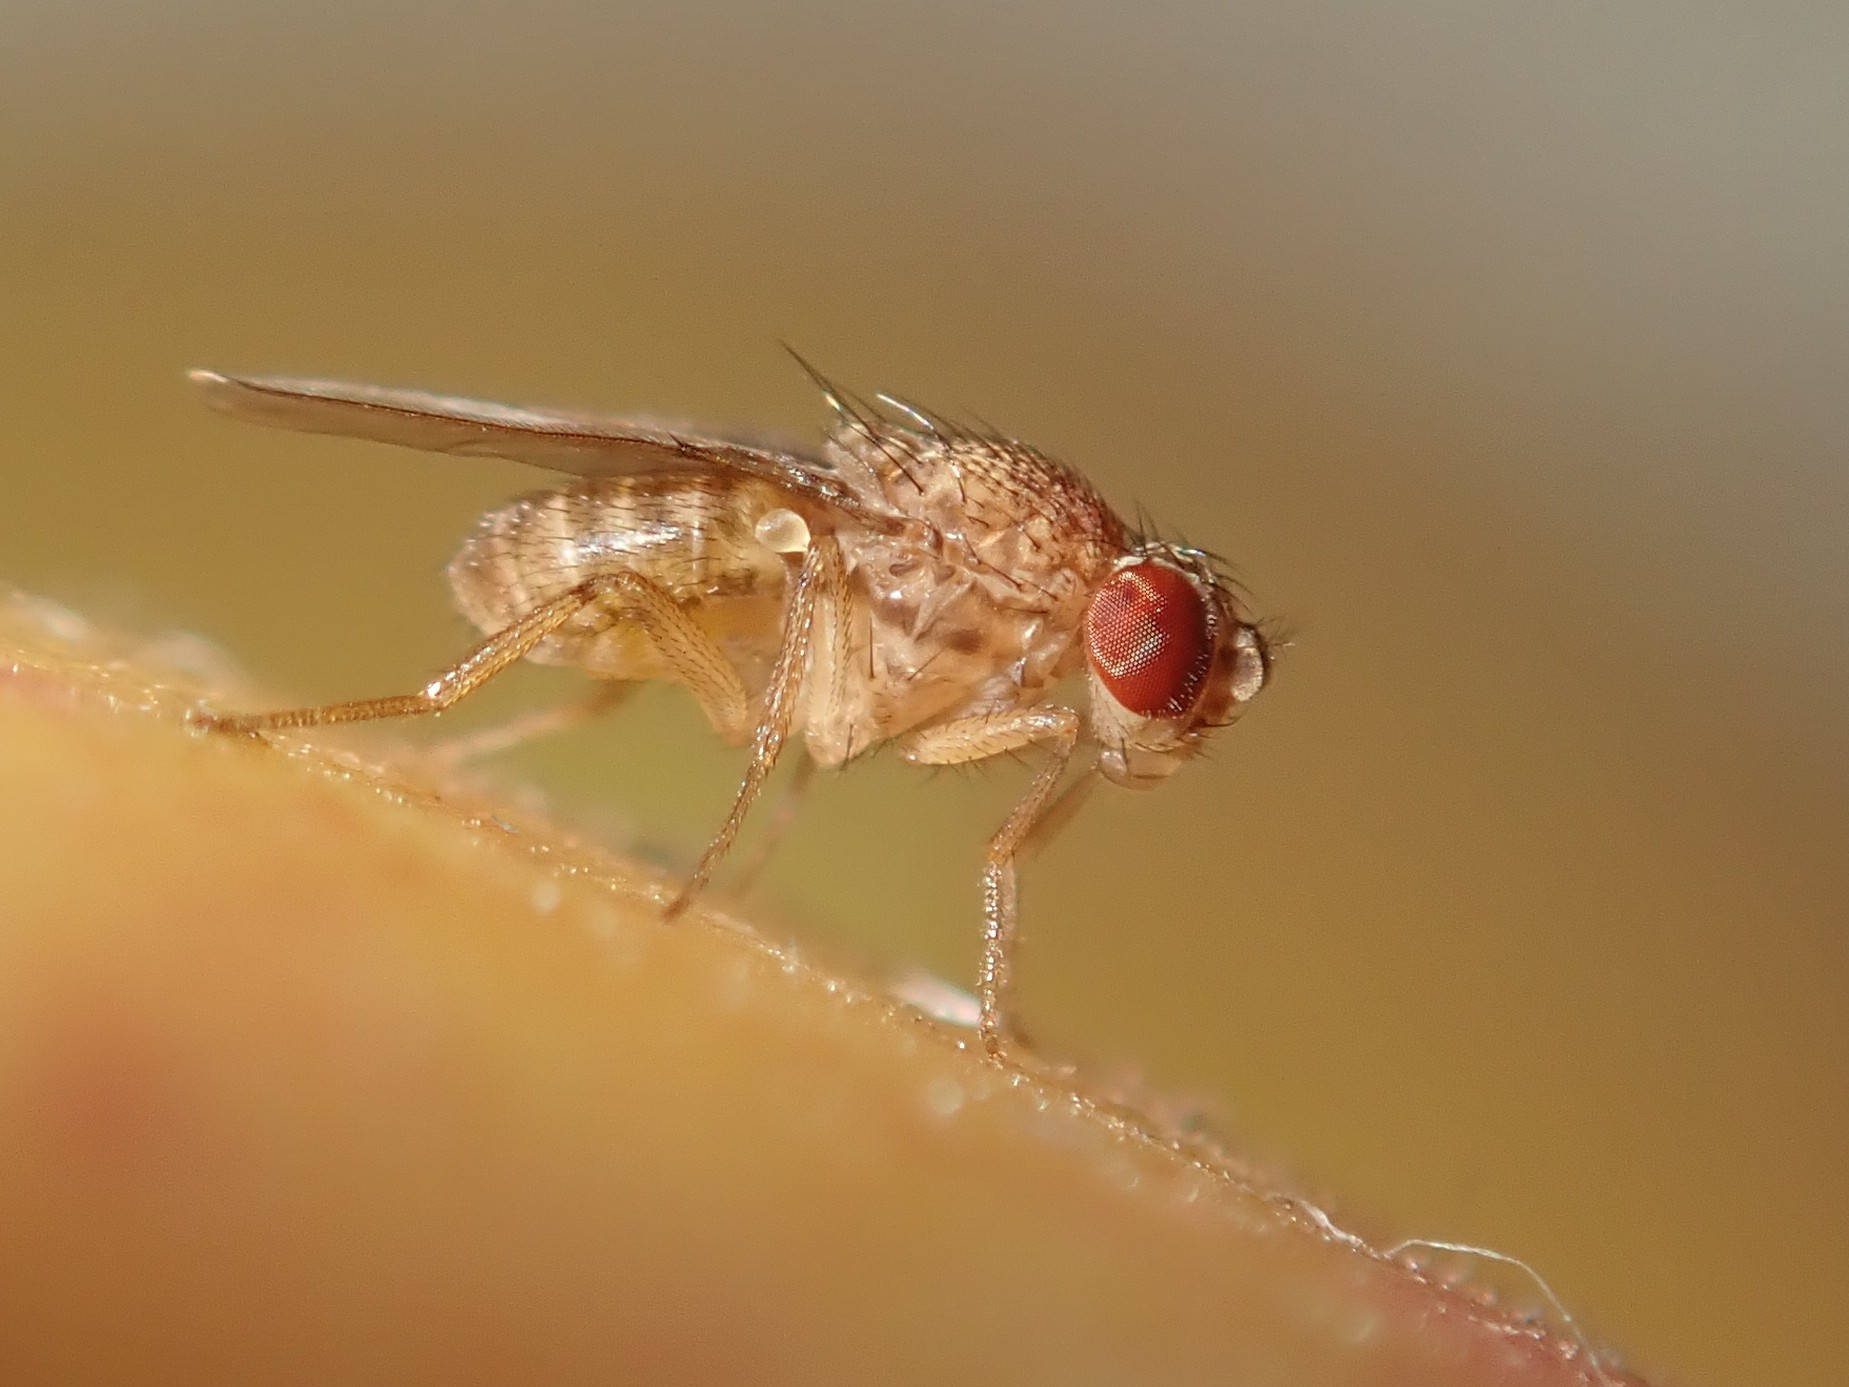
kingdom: Animalia
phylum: Arthropoda
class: Insecta
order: Diptera
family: Drosophilidae
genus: Drosophila
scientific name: Drosophila repleta
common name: Pomace fly
